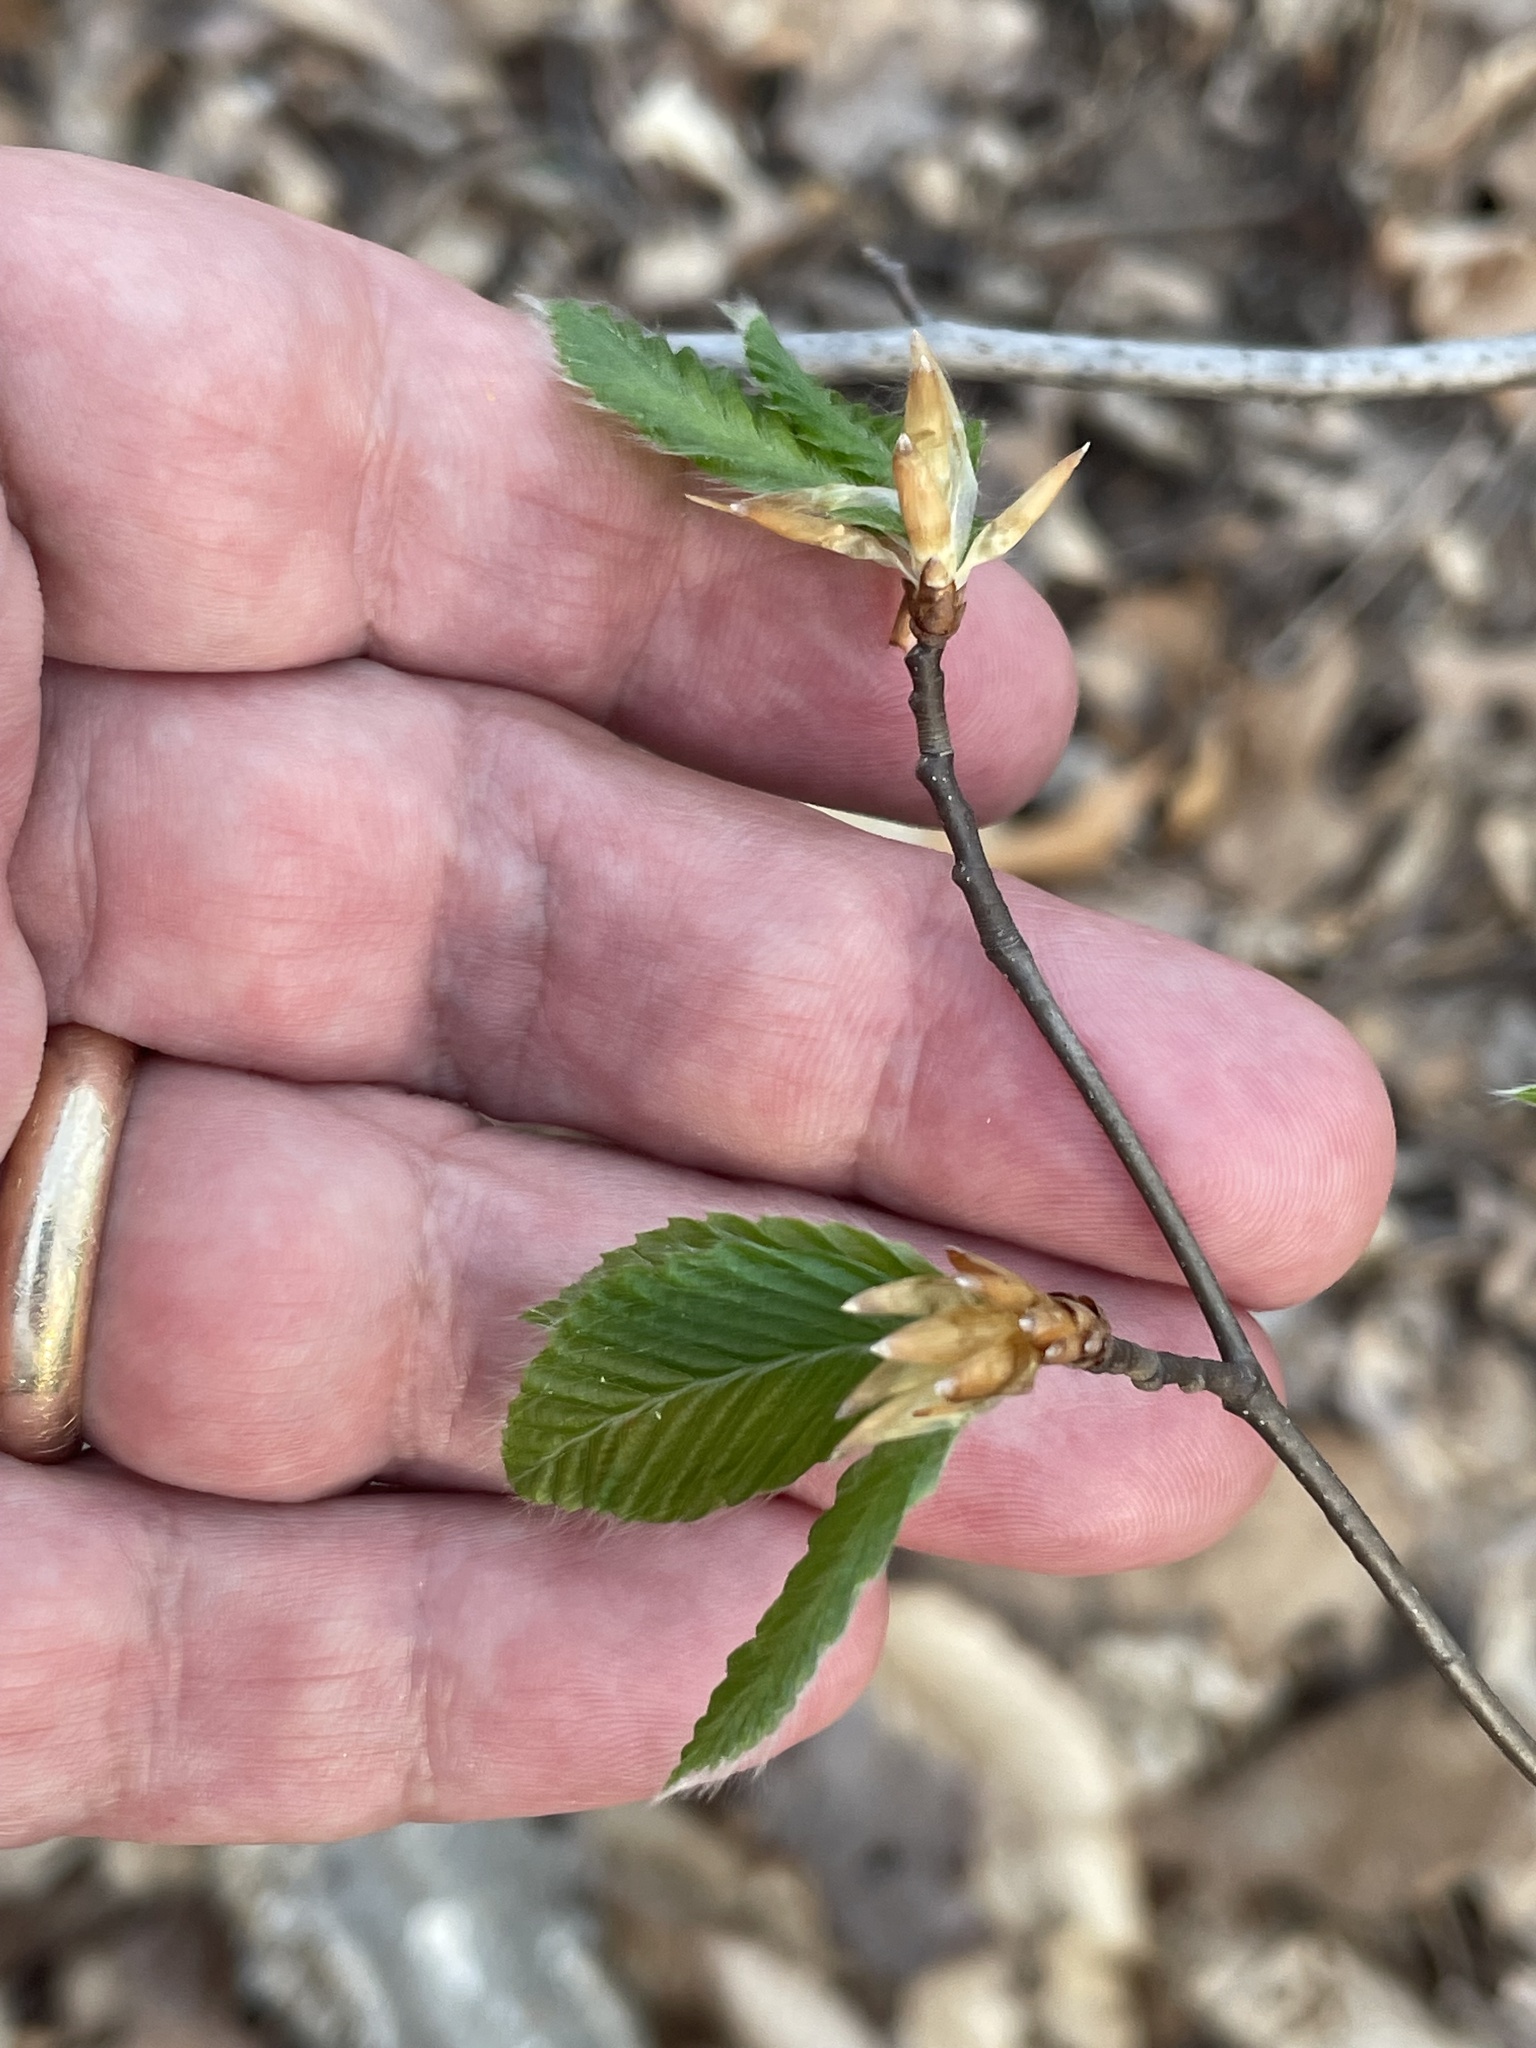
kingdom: Plantae
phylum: Tracheophyta
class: Magnoliopsida
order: Fagales
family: Fagaceae
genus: Fagus
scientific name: Fagus grandifolia
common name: American beech
